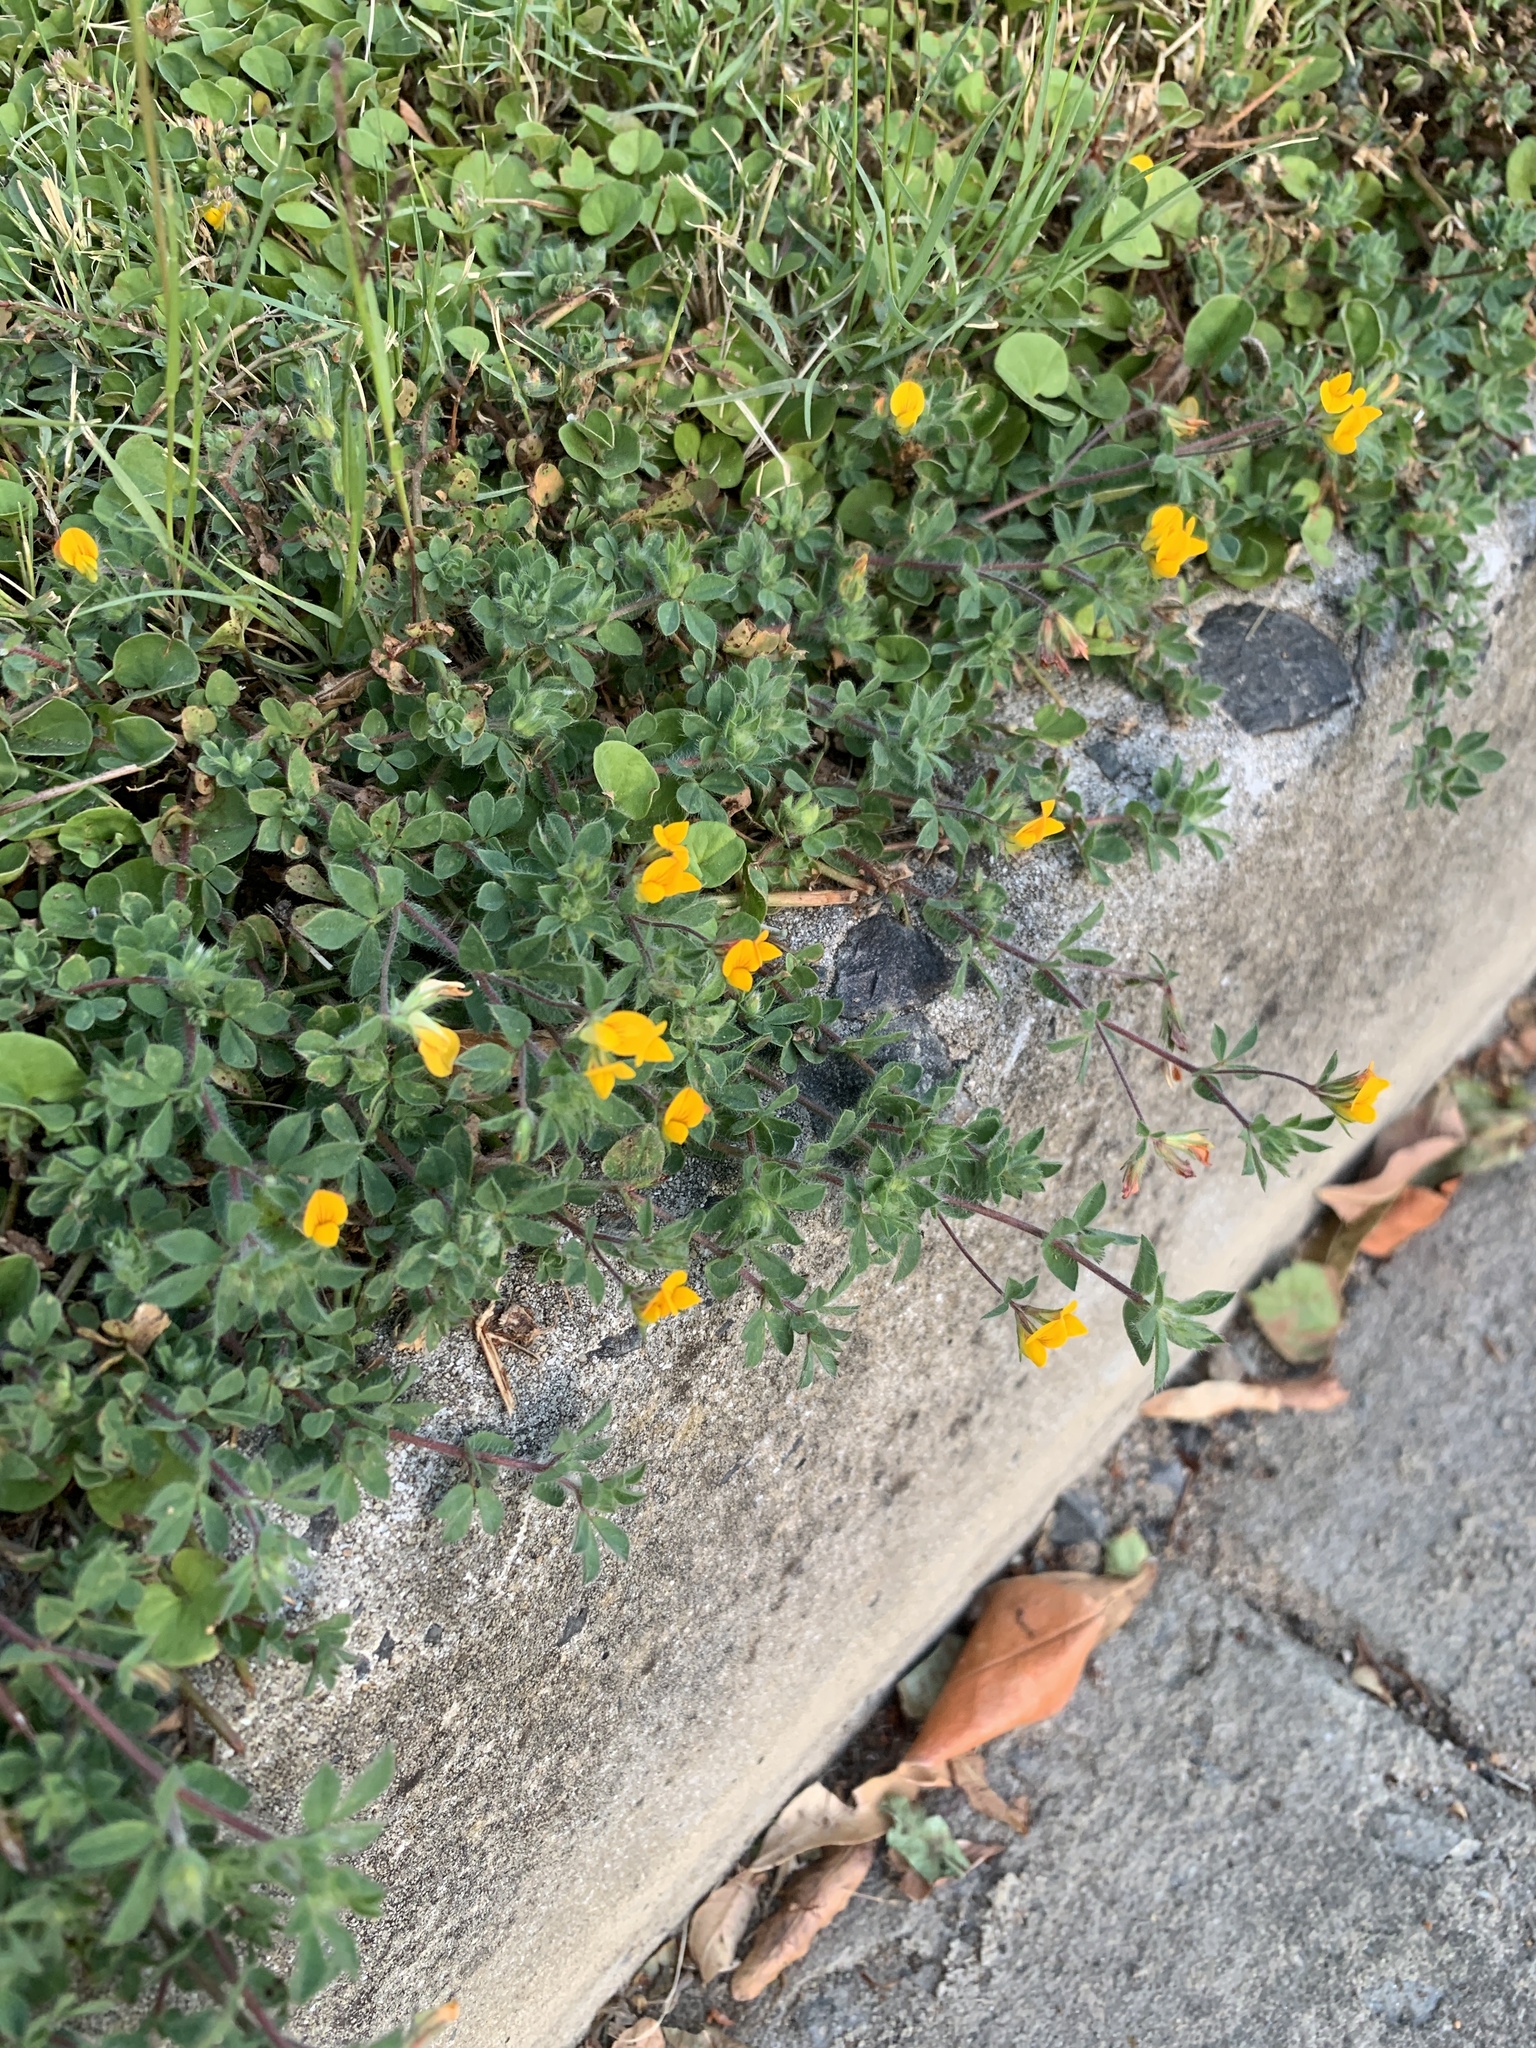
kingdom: Plantae
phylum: Tracheophyta
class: Magnoliopsida
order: Fabales
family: Fabaceae
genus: Lotus
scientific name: Lotus subbiflorus
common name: Hairy bird's-foot trefoil
